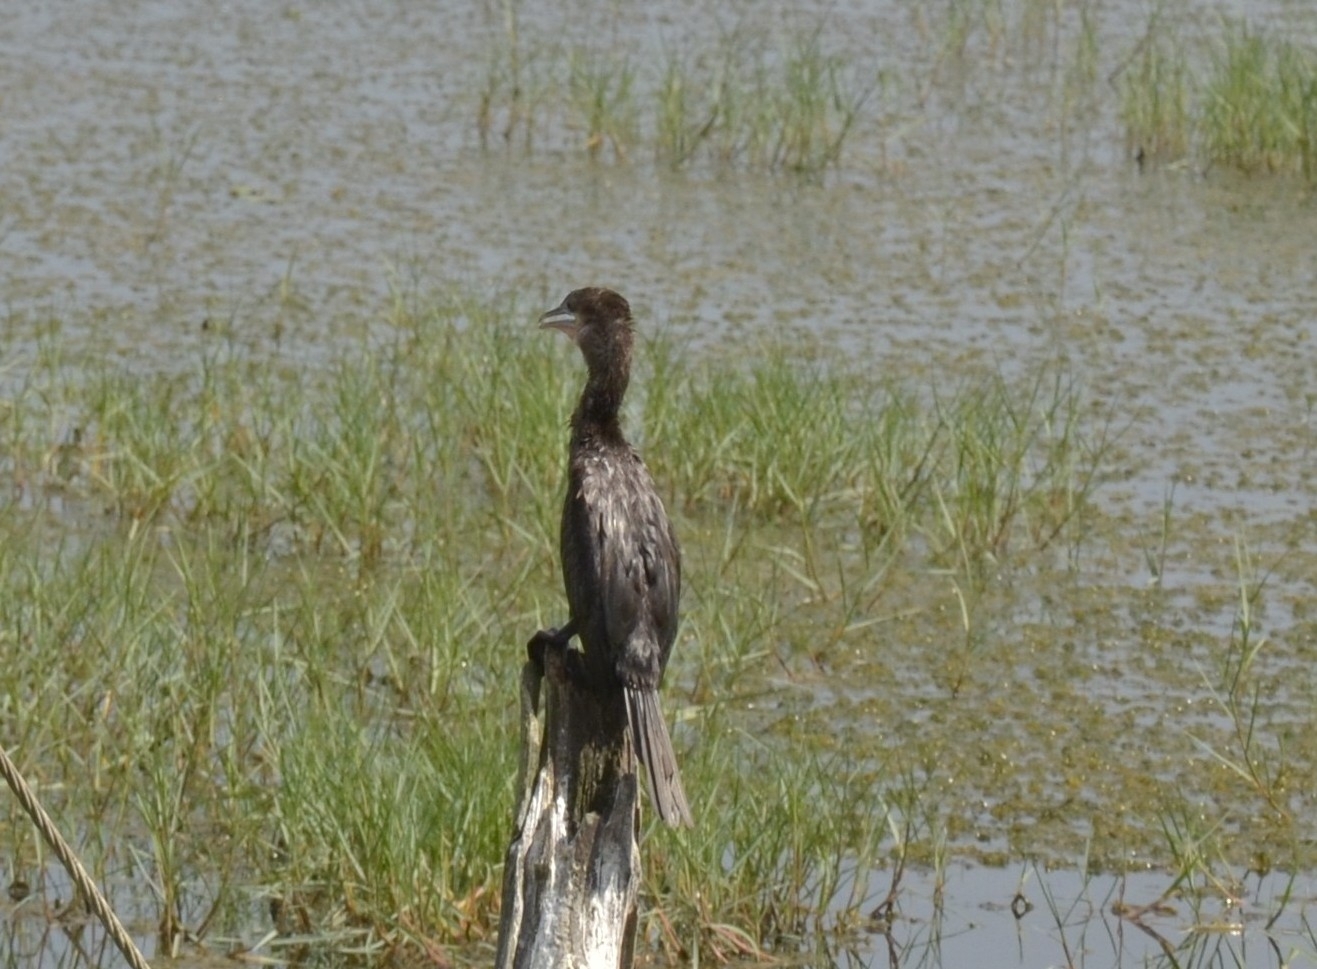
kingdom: Animalia
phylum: Chordata
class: Aves
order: Suliformes
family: Phalacrocoracidae
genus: Microcarbo
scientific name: Microcarbo niger
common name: Little cormorant
